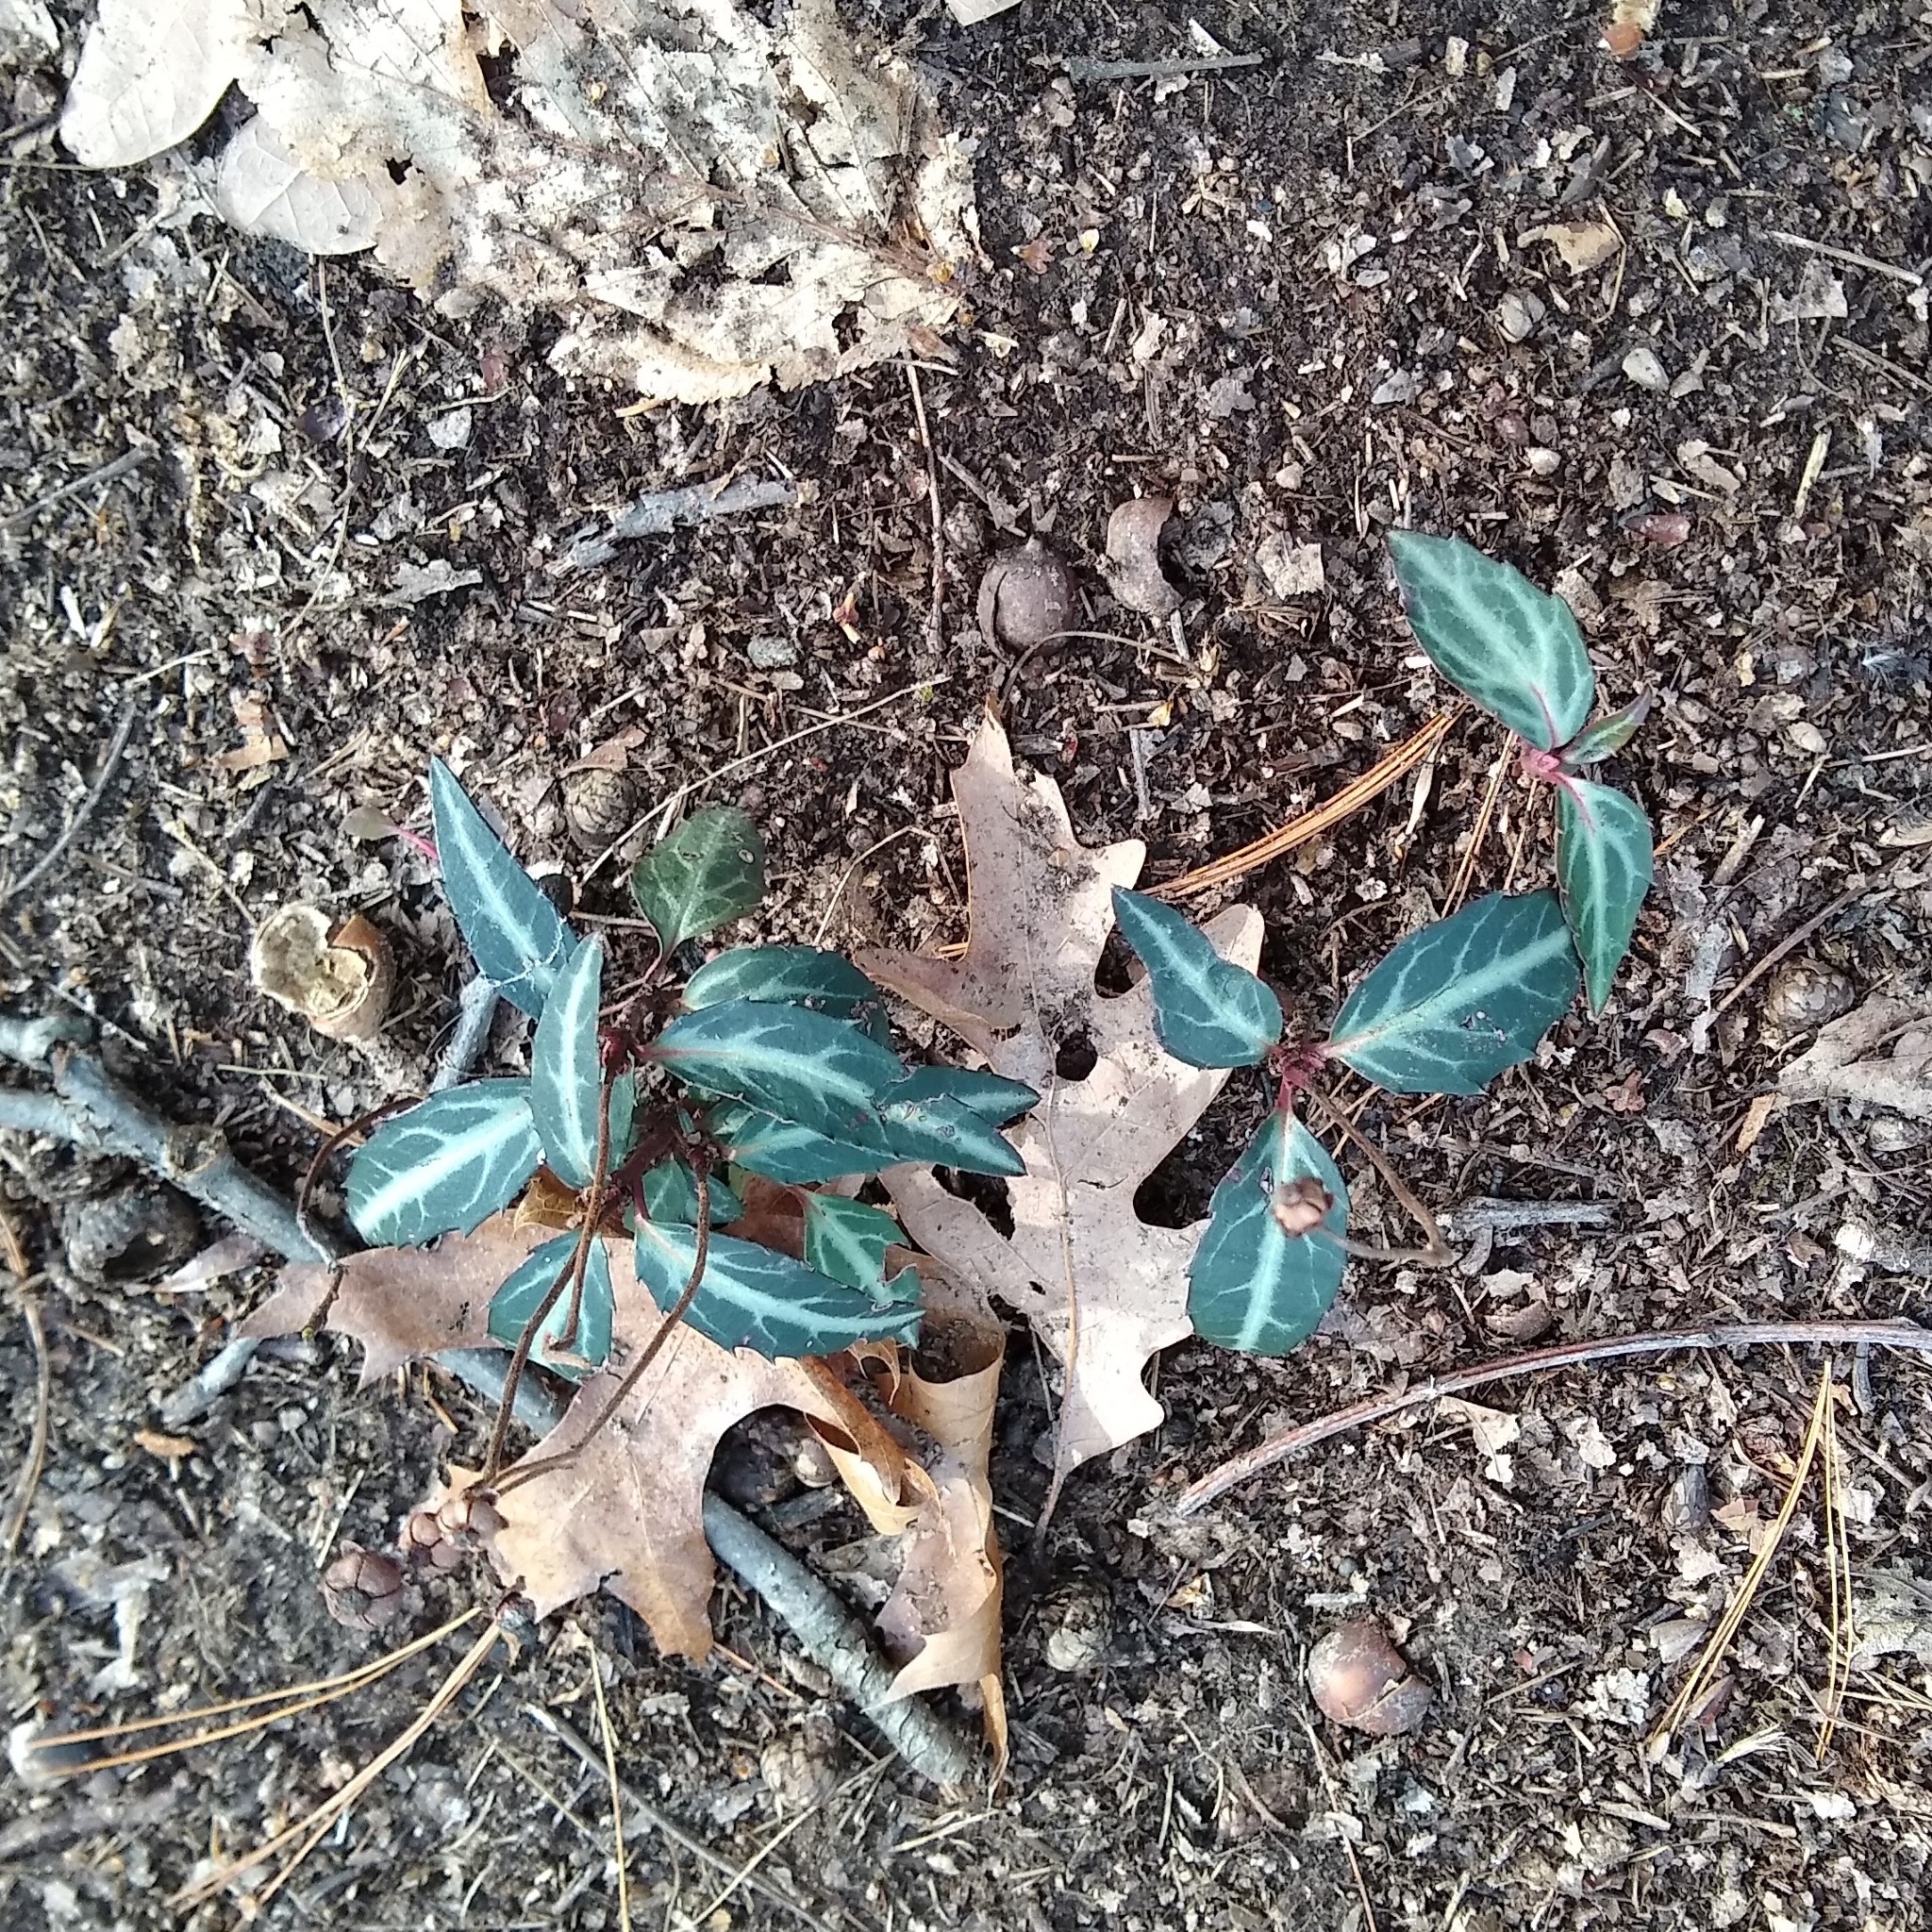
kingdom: Plantae
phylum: Tracheophyta
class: Magnoliopsida
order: Ericales
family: Ericaceae
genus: Chimaphila
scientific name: Chimaphila maculata
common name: Spotted pipsissewa
